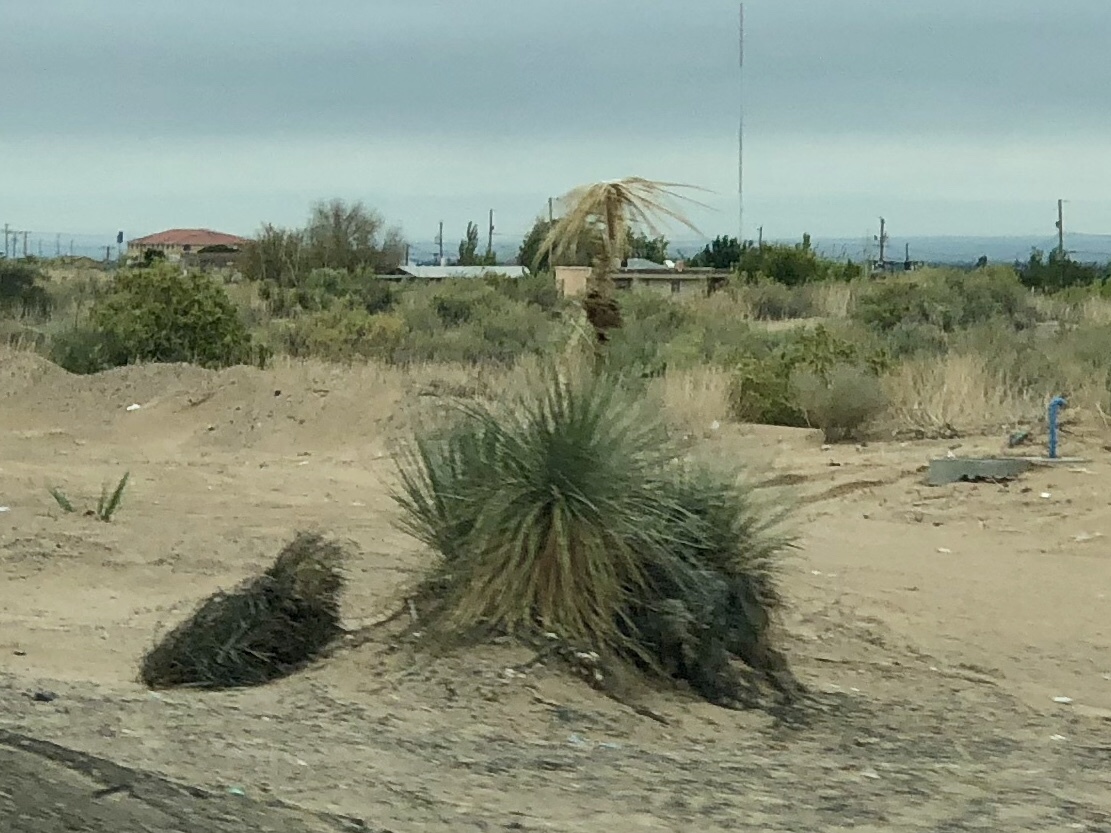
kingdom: Plantae
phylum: Tracheophyta
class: Liliopsida
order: Asparagales
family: Asparagaceae
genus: Yucca
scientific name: Yucca elata
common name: Palmella
